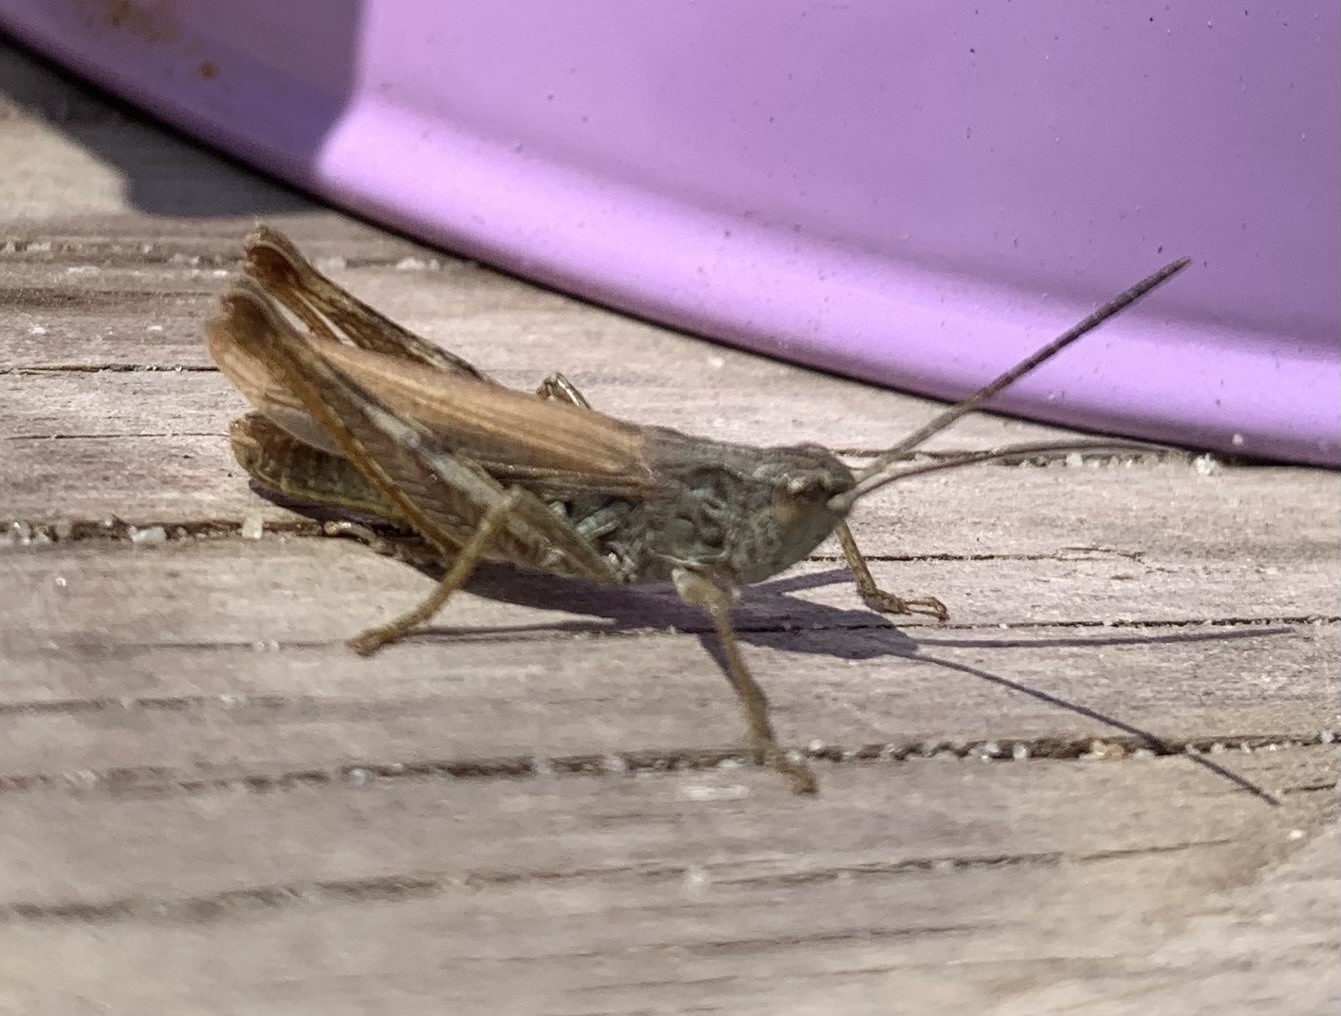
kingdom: Animalia
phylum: Arthropoda
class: Insecta
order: Orthoptera
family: Acrididae
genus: Chorthippus
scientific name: Chorthippus apricarius
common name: Upland field grasshopper
